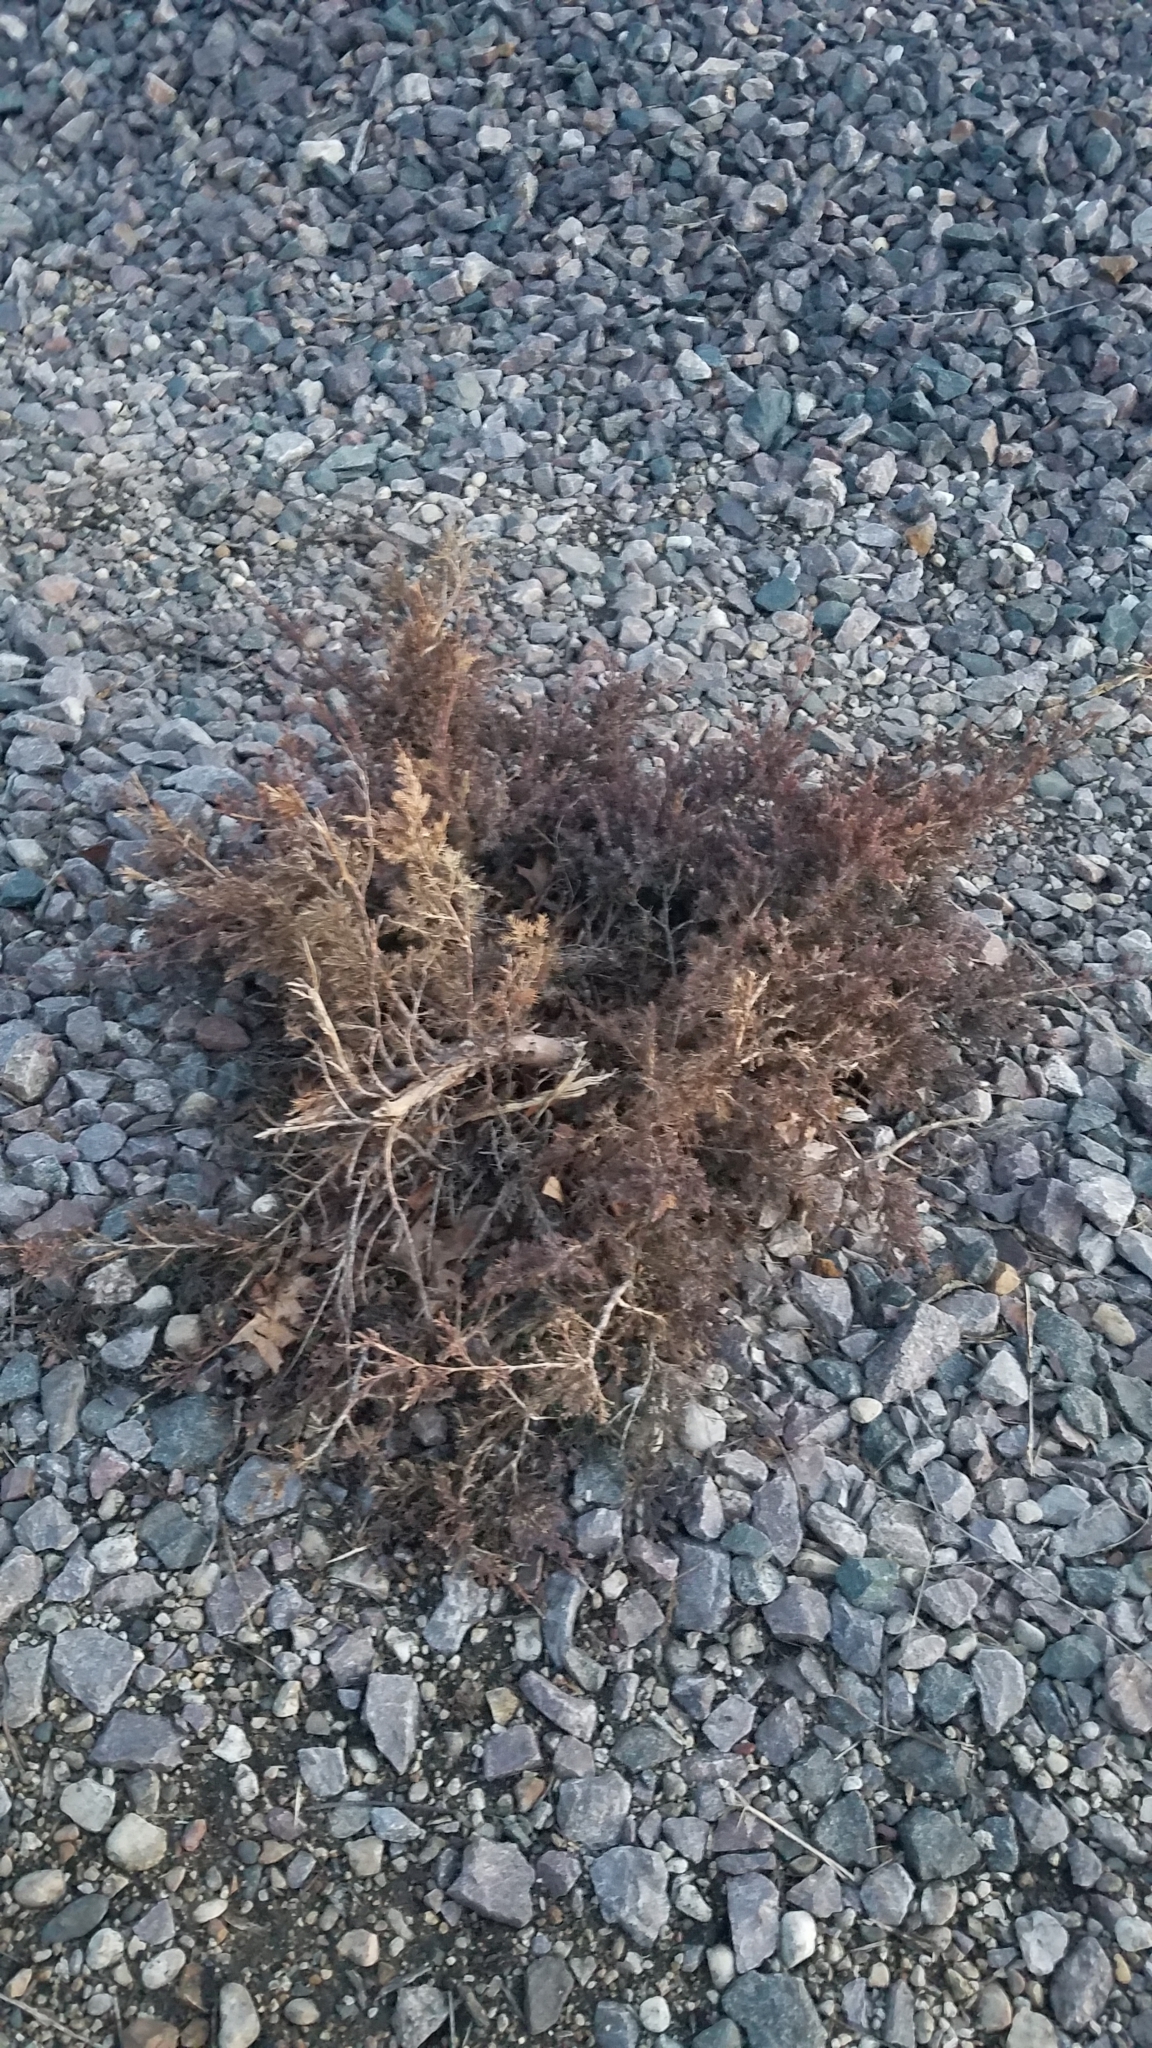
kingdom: Plantae
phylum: Tracheophyta
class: Pinopsida
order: Pinales
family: Cupressaceae
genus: Juniperus
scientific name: Juniperus virginiana
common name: Red juniper
